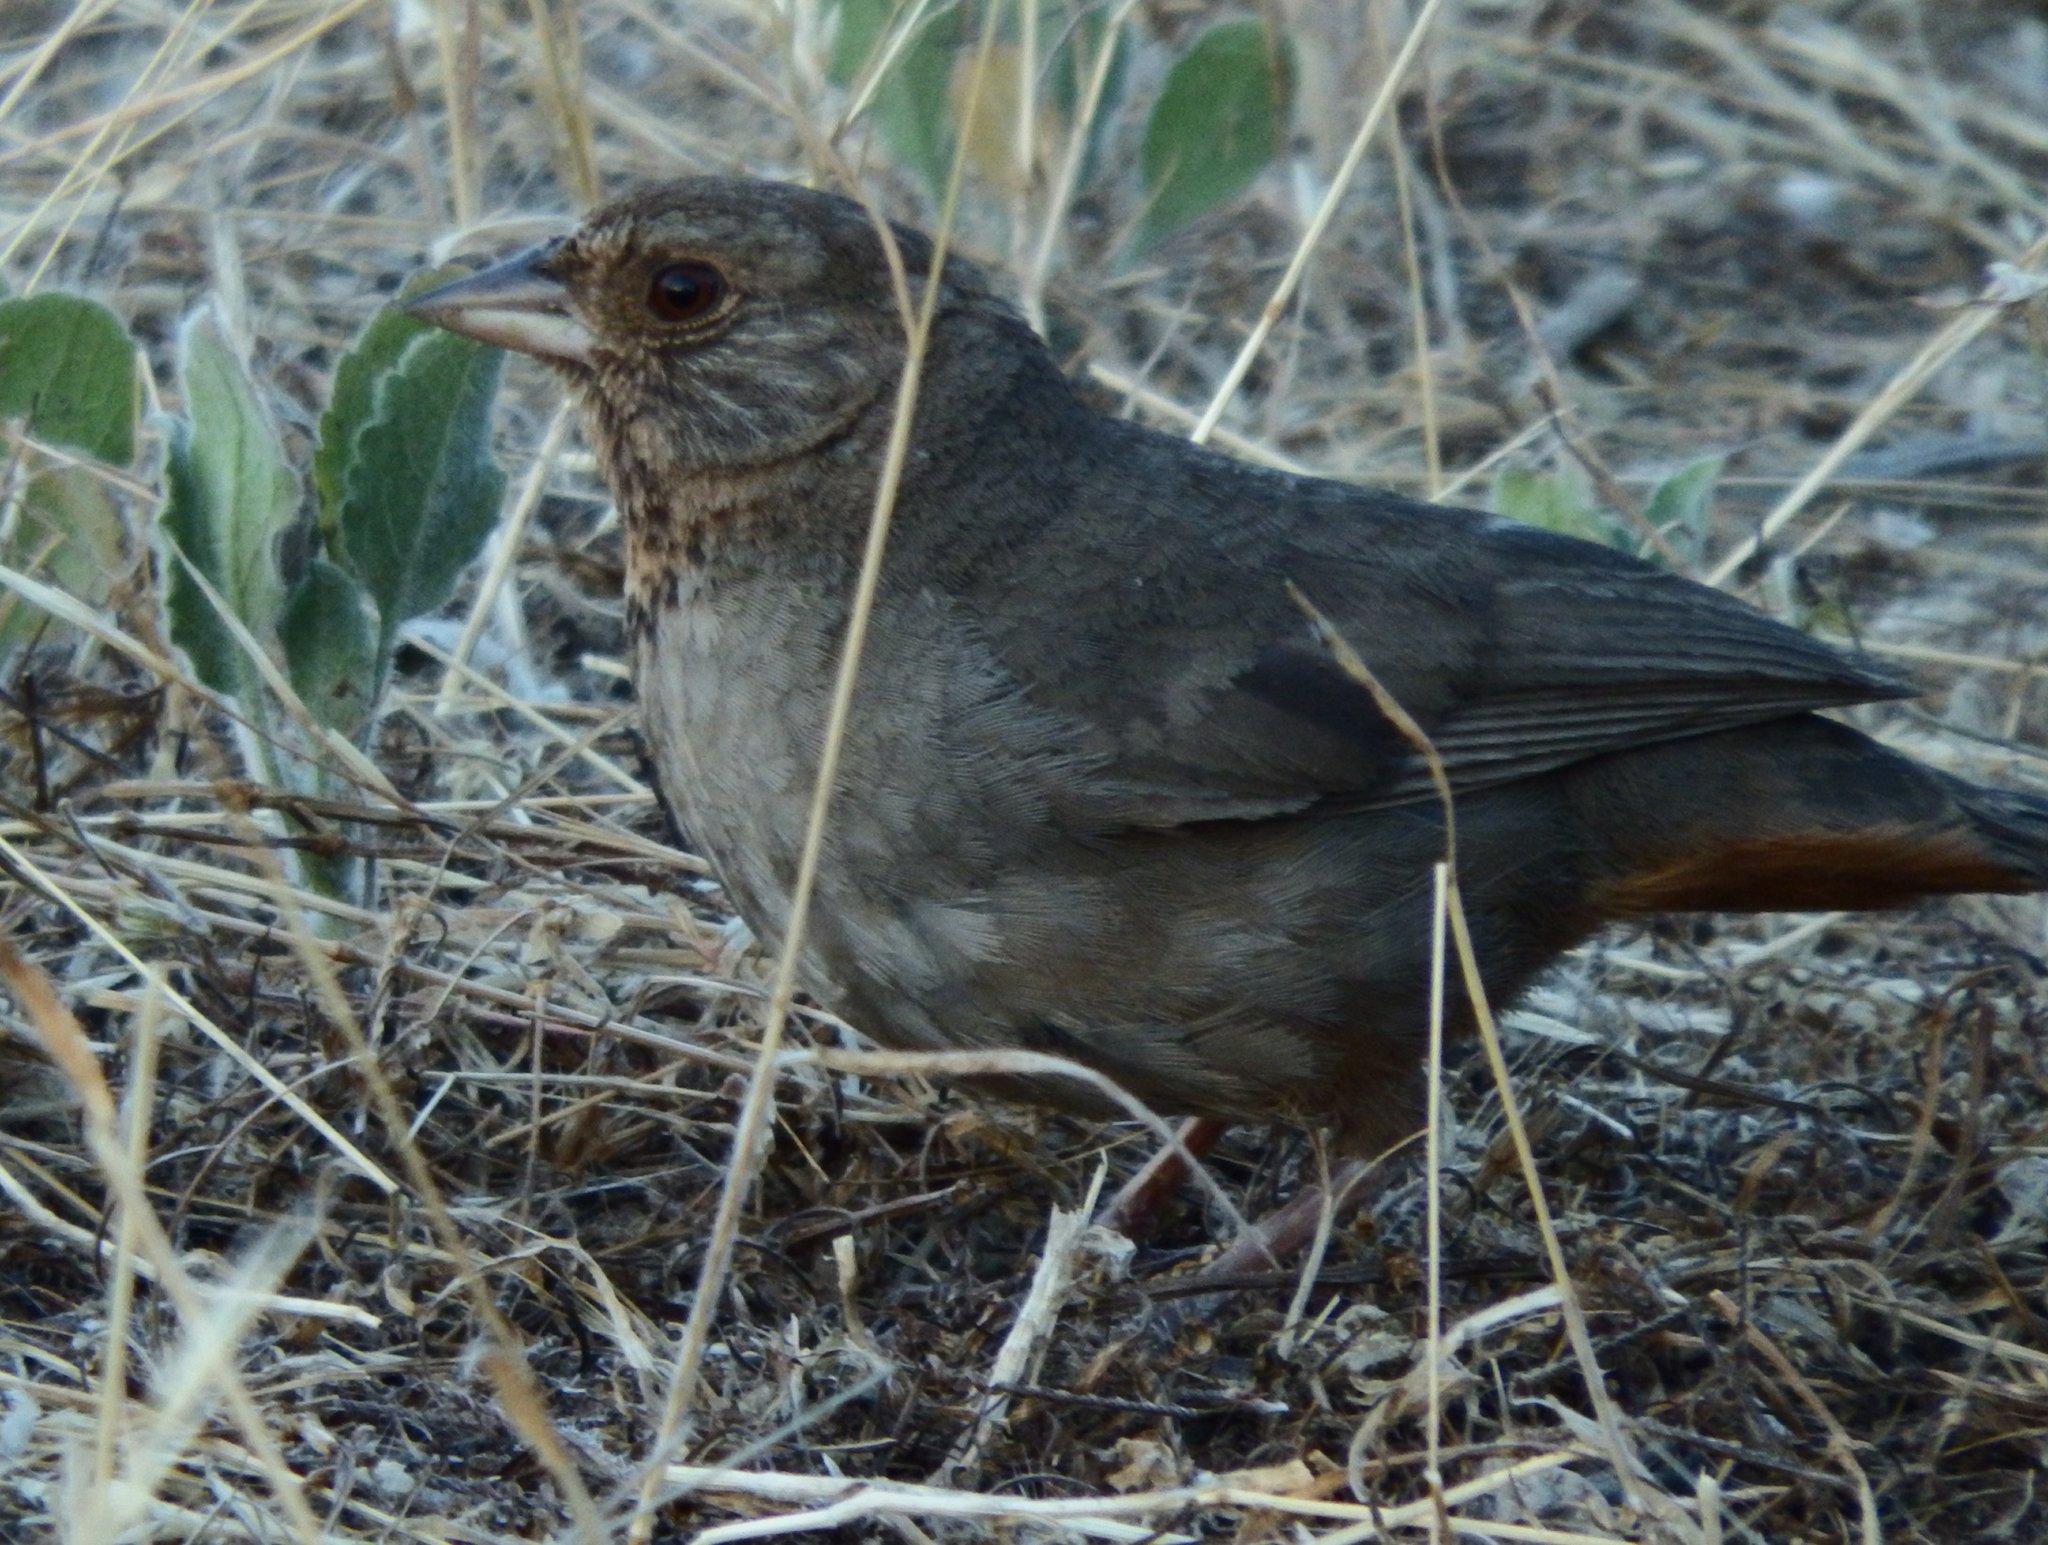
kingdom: Animalia
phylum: Chordata
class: Aves
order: Passeriformes
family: Passerellidae
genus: Melozone
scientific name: Melozone crissalis
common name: California towhee
